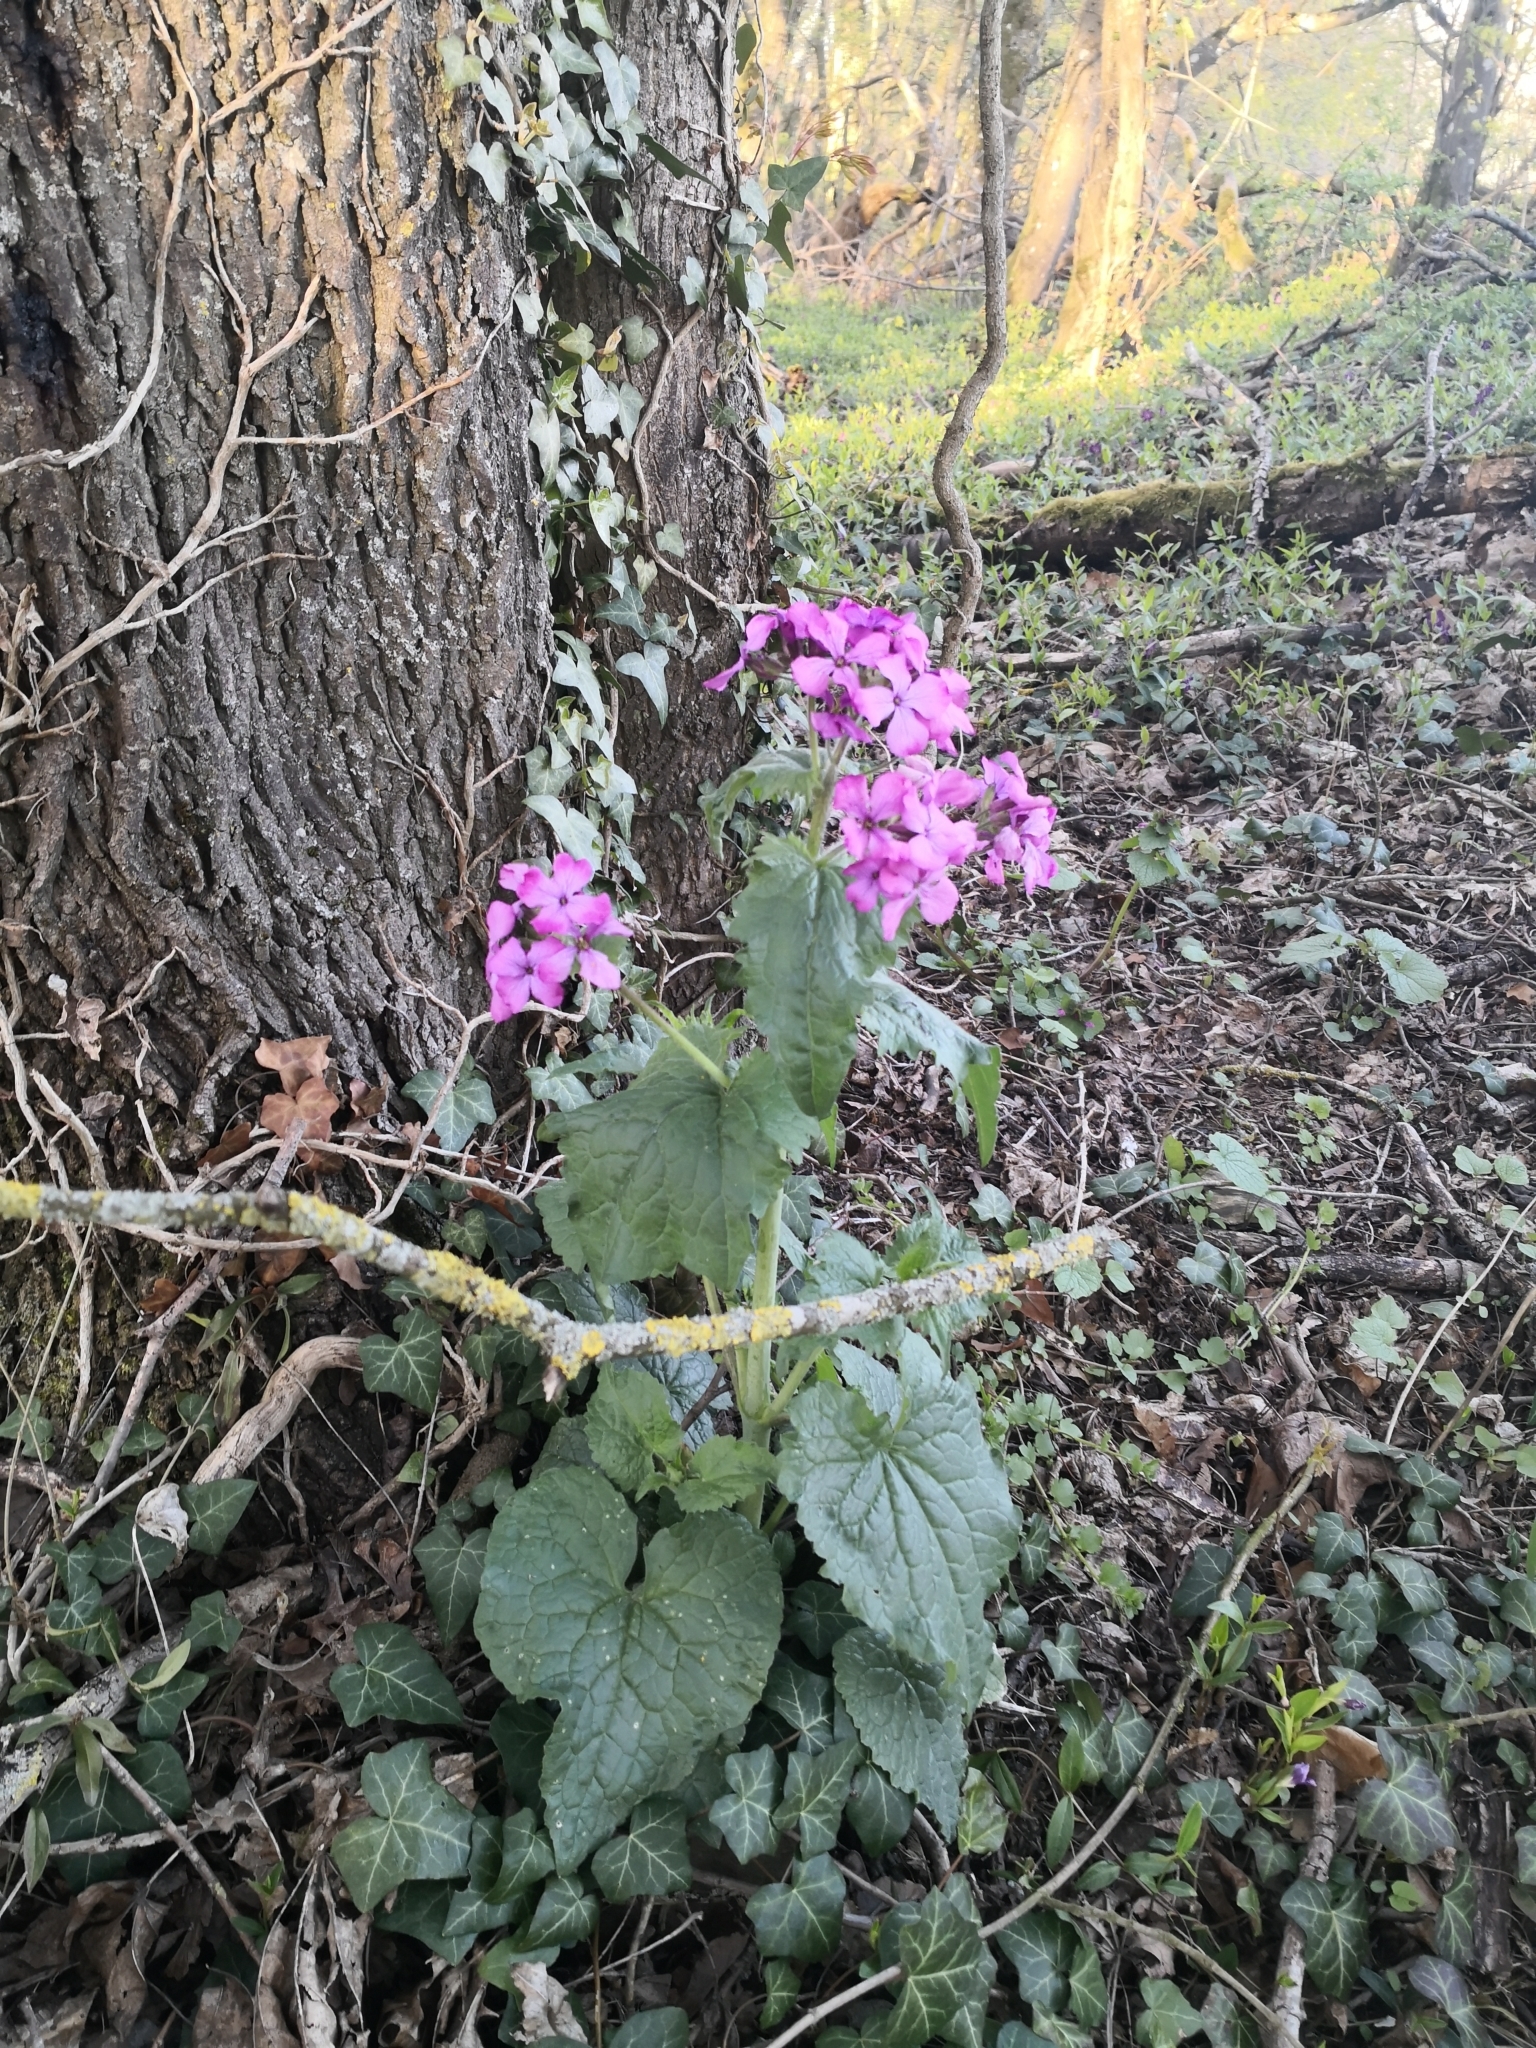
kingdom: Plantae
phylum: Tracheophyta
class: Magnoliopsida
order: Brassicales
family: Brassicaceae
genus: Lunaria
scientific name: Lunaria annua
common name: Honesty
